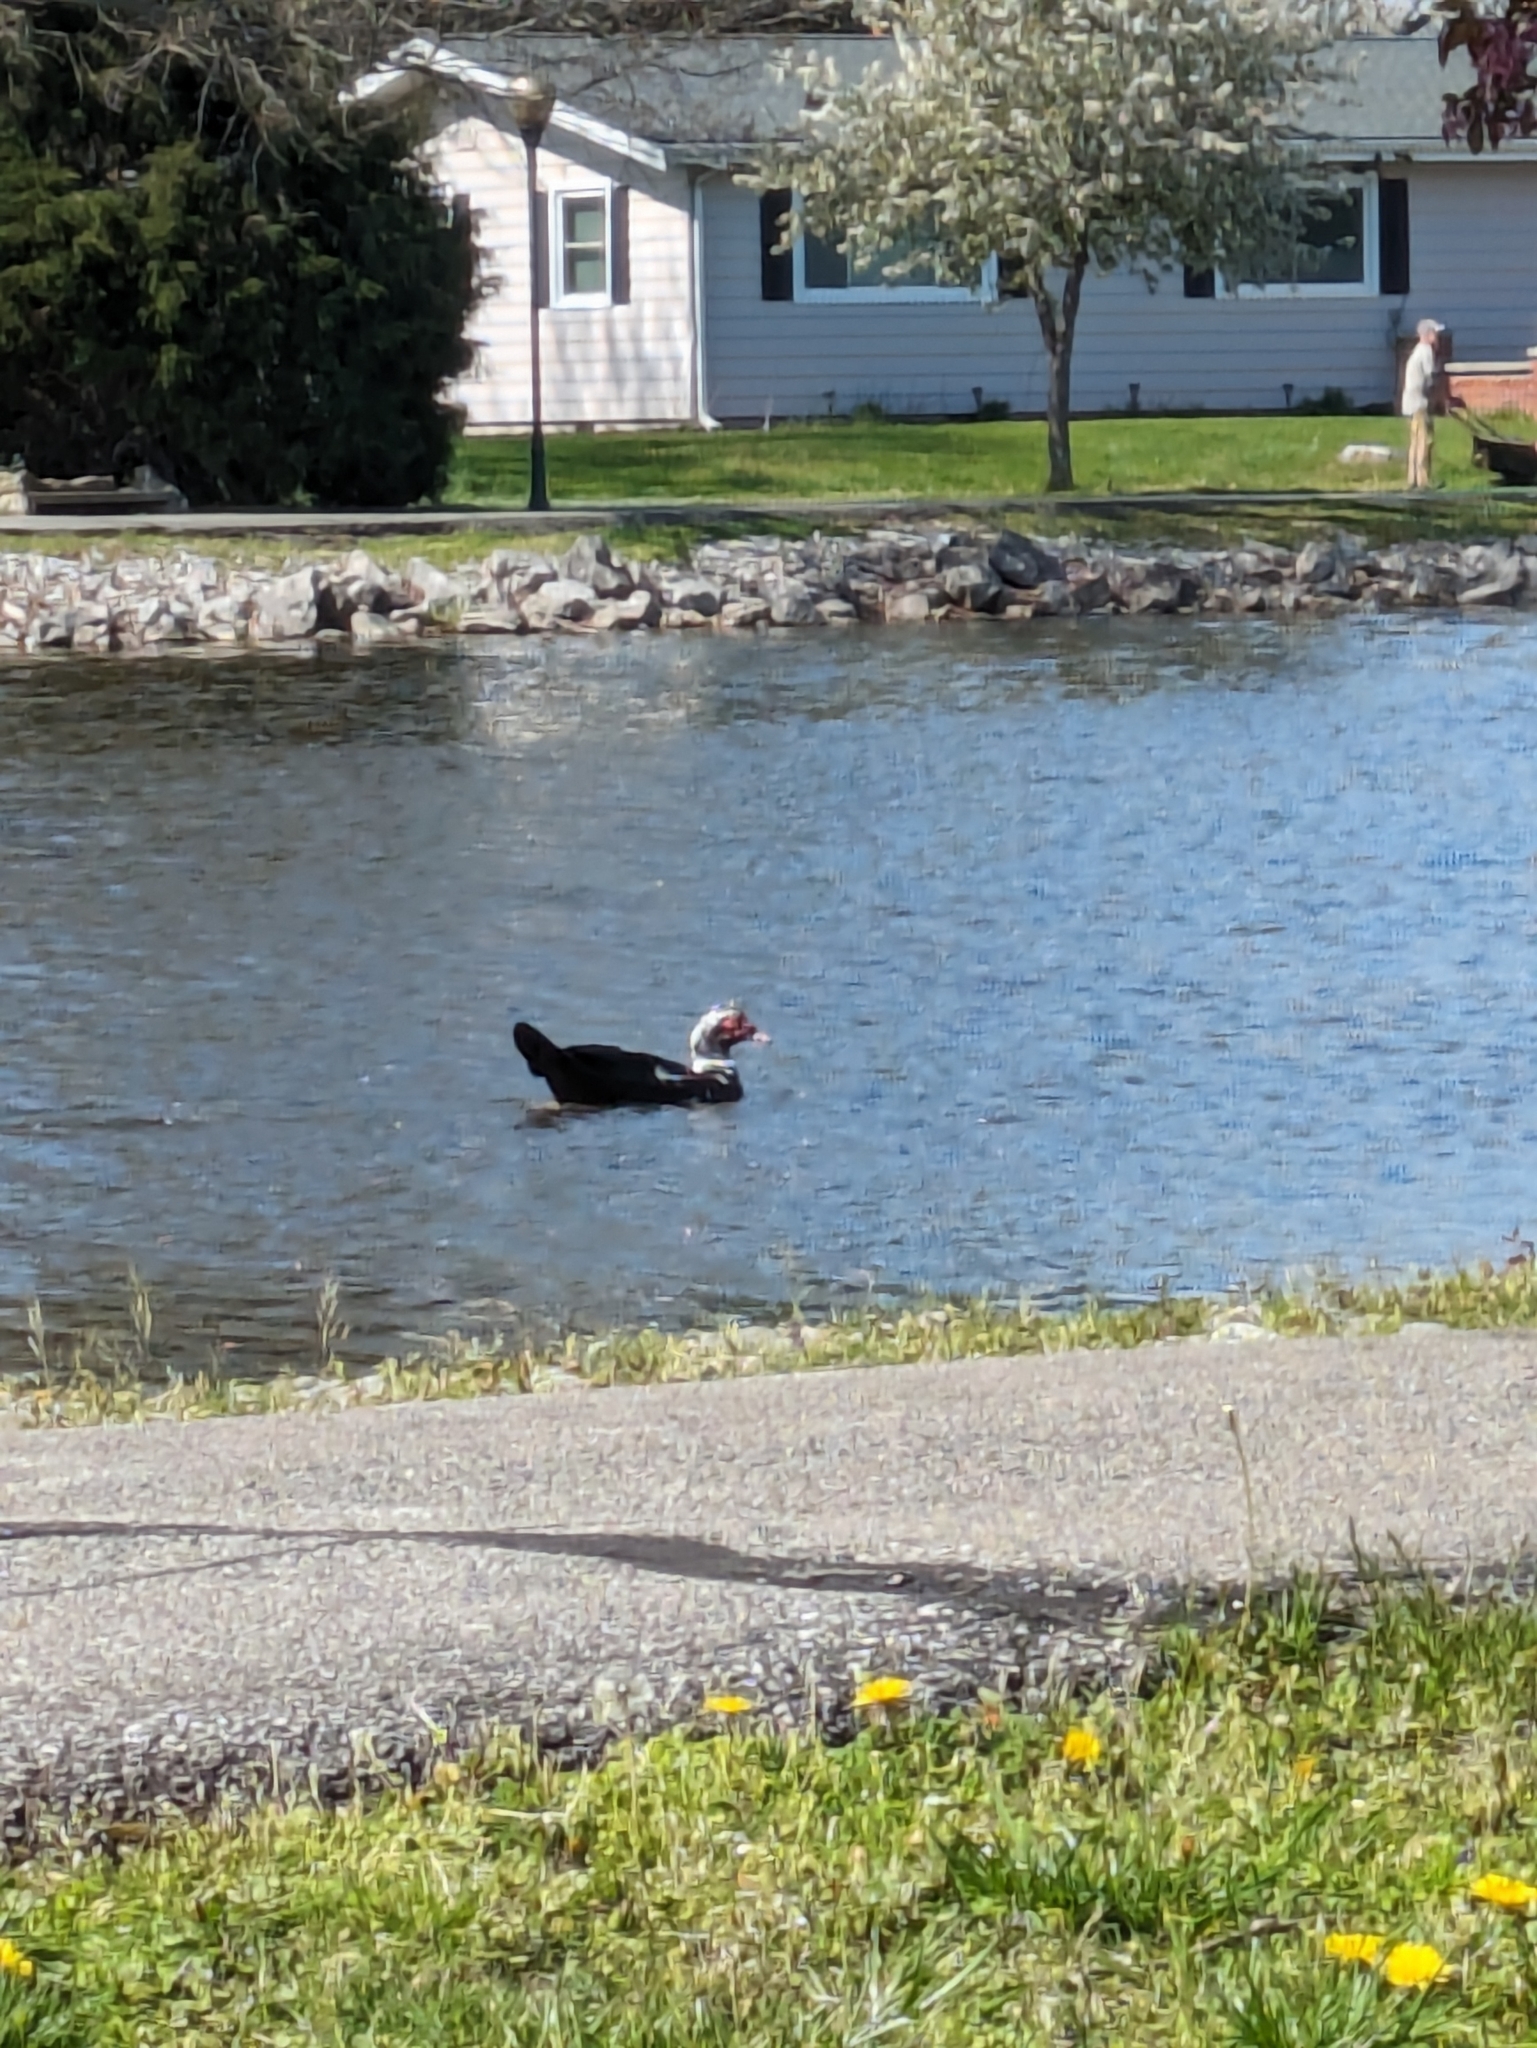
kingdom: Animalia
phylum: Chordata
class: Aves
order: Anseriformes
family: Anatidae
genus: Cairina
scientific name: Cairina moschata
